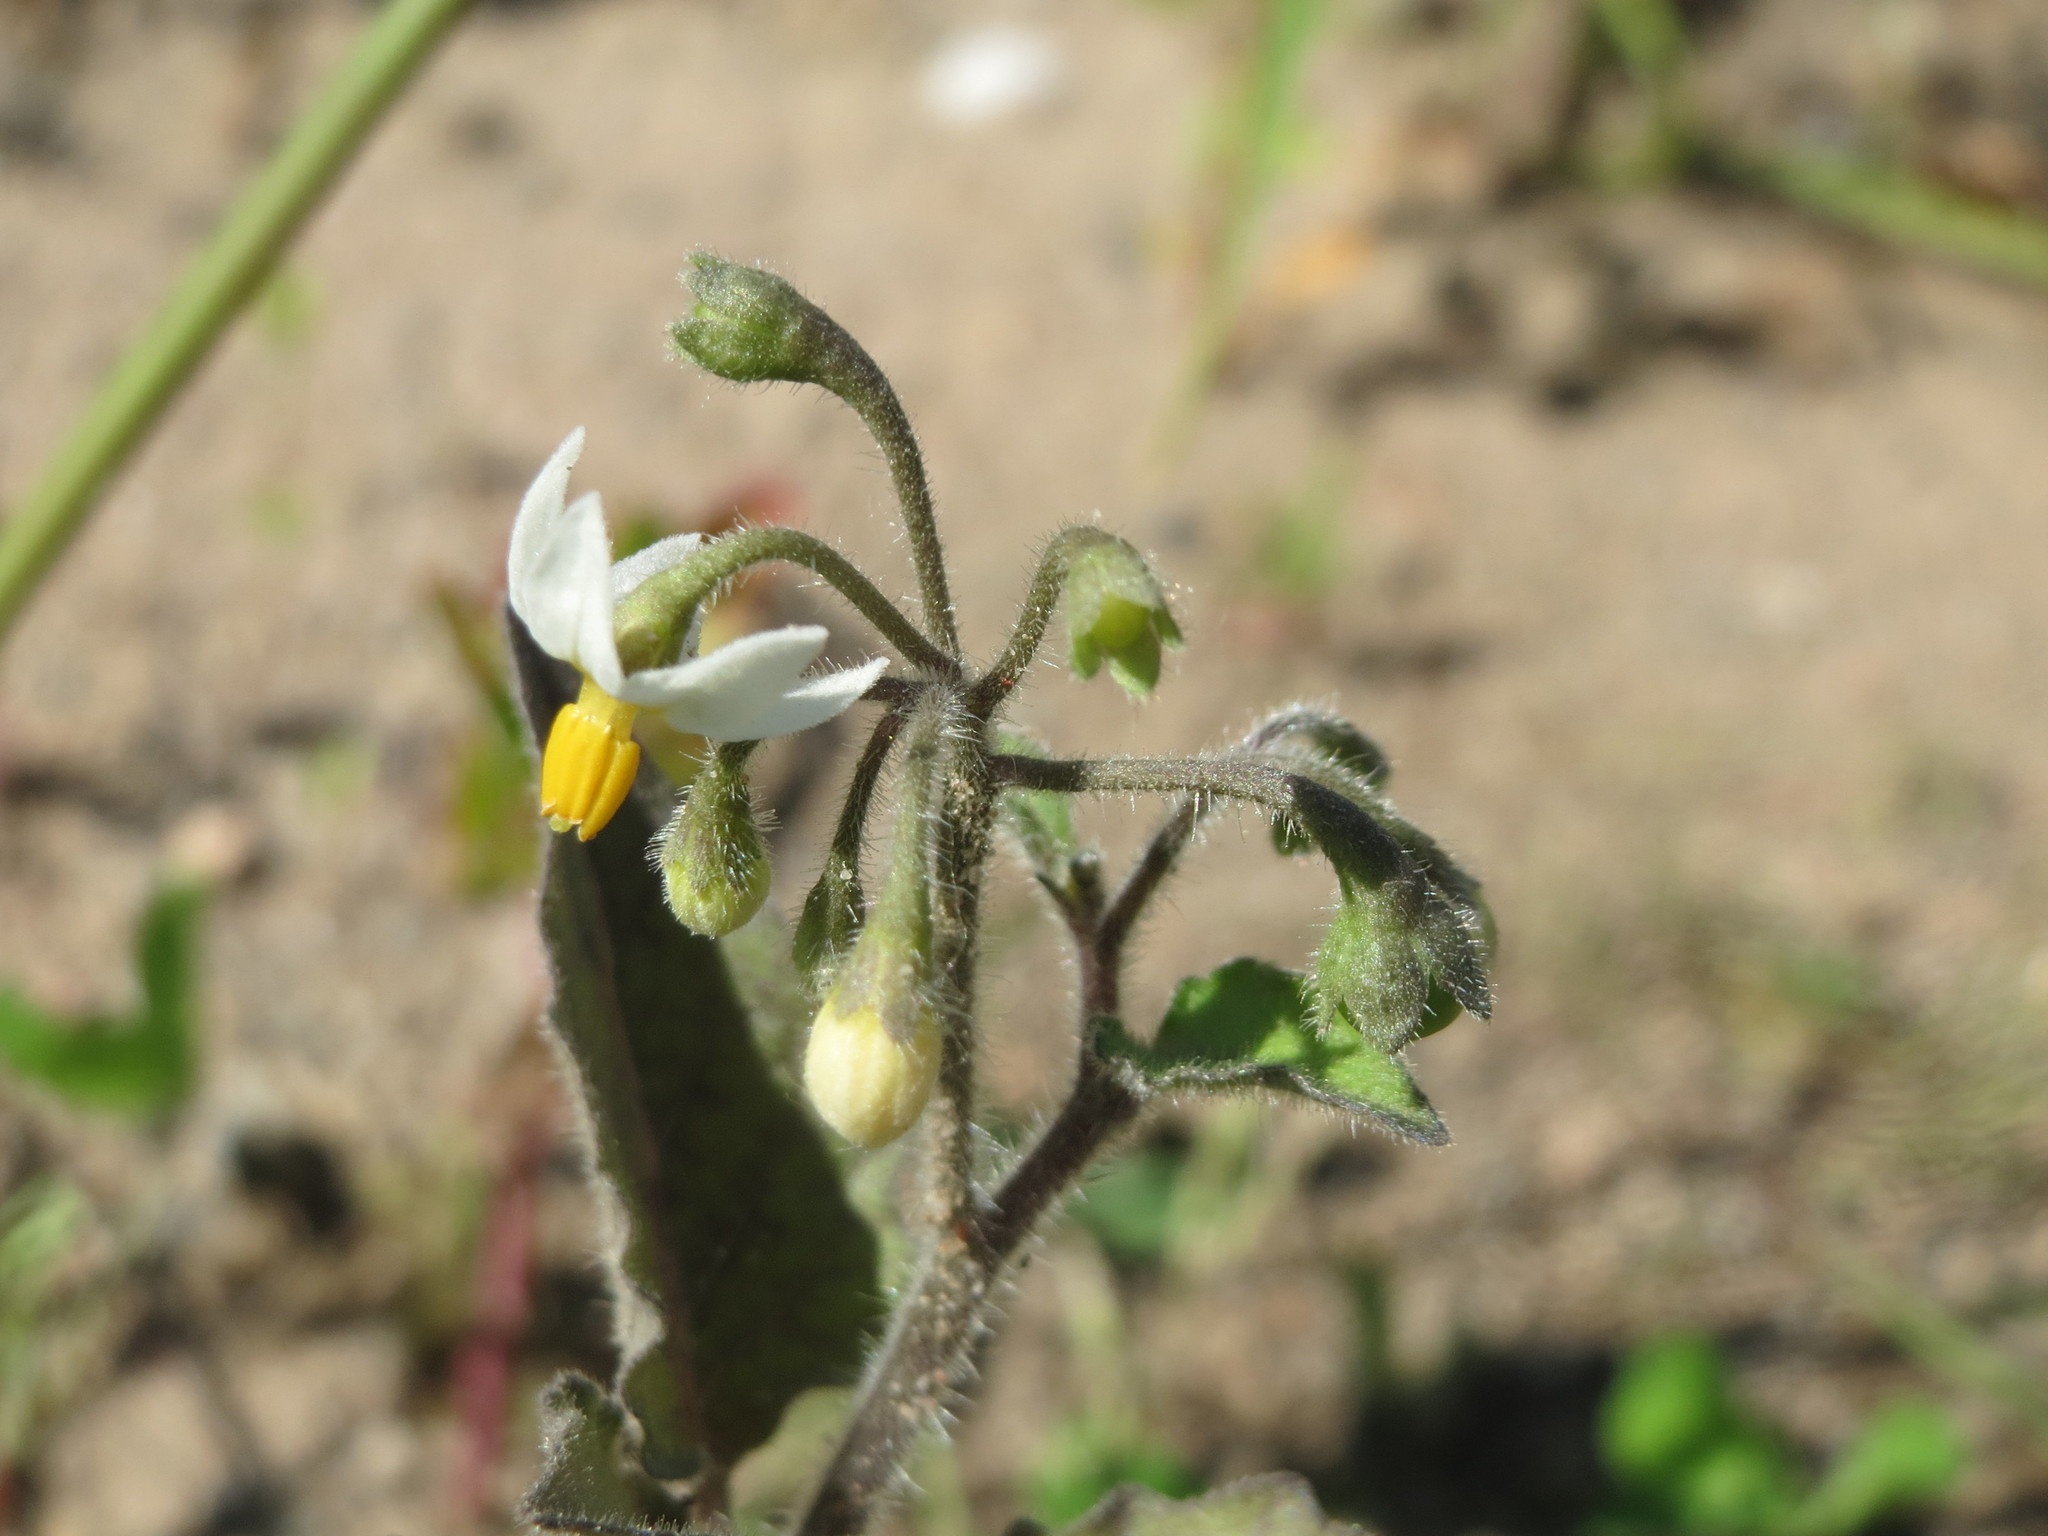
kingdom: Plantae
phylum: Tracheophyta
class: Magnoliopsida
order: Solanales
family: Solanaceae
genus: Solanum
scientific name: Solanum decipiens
